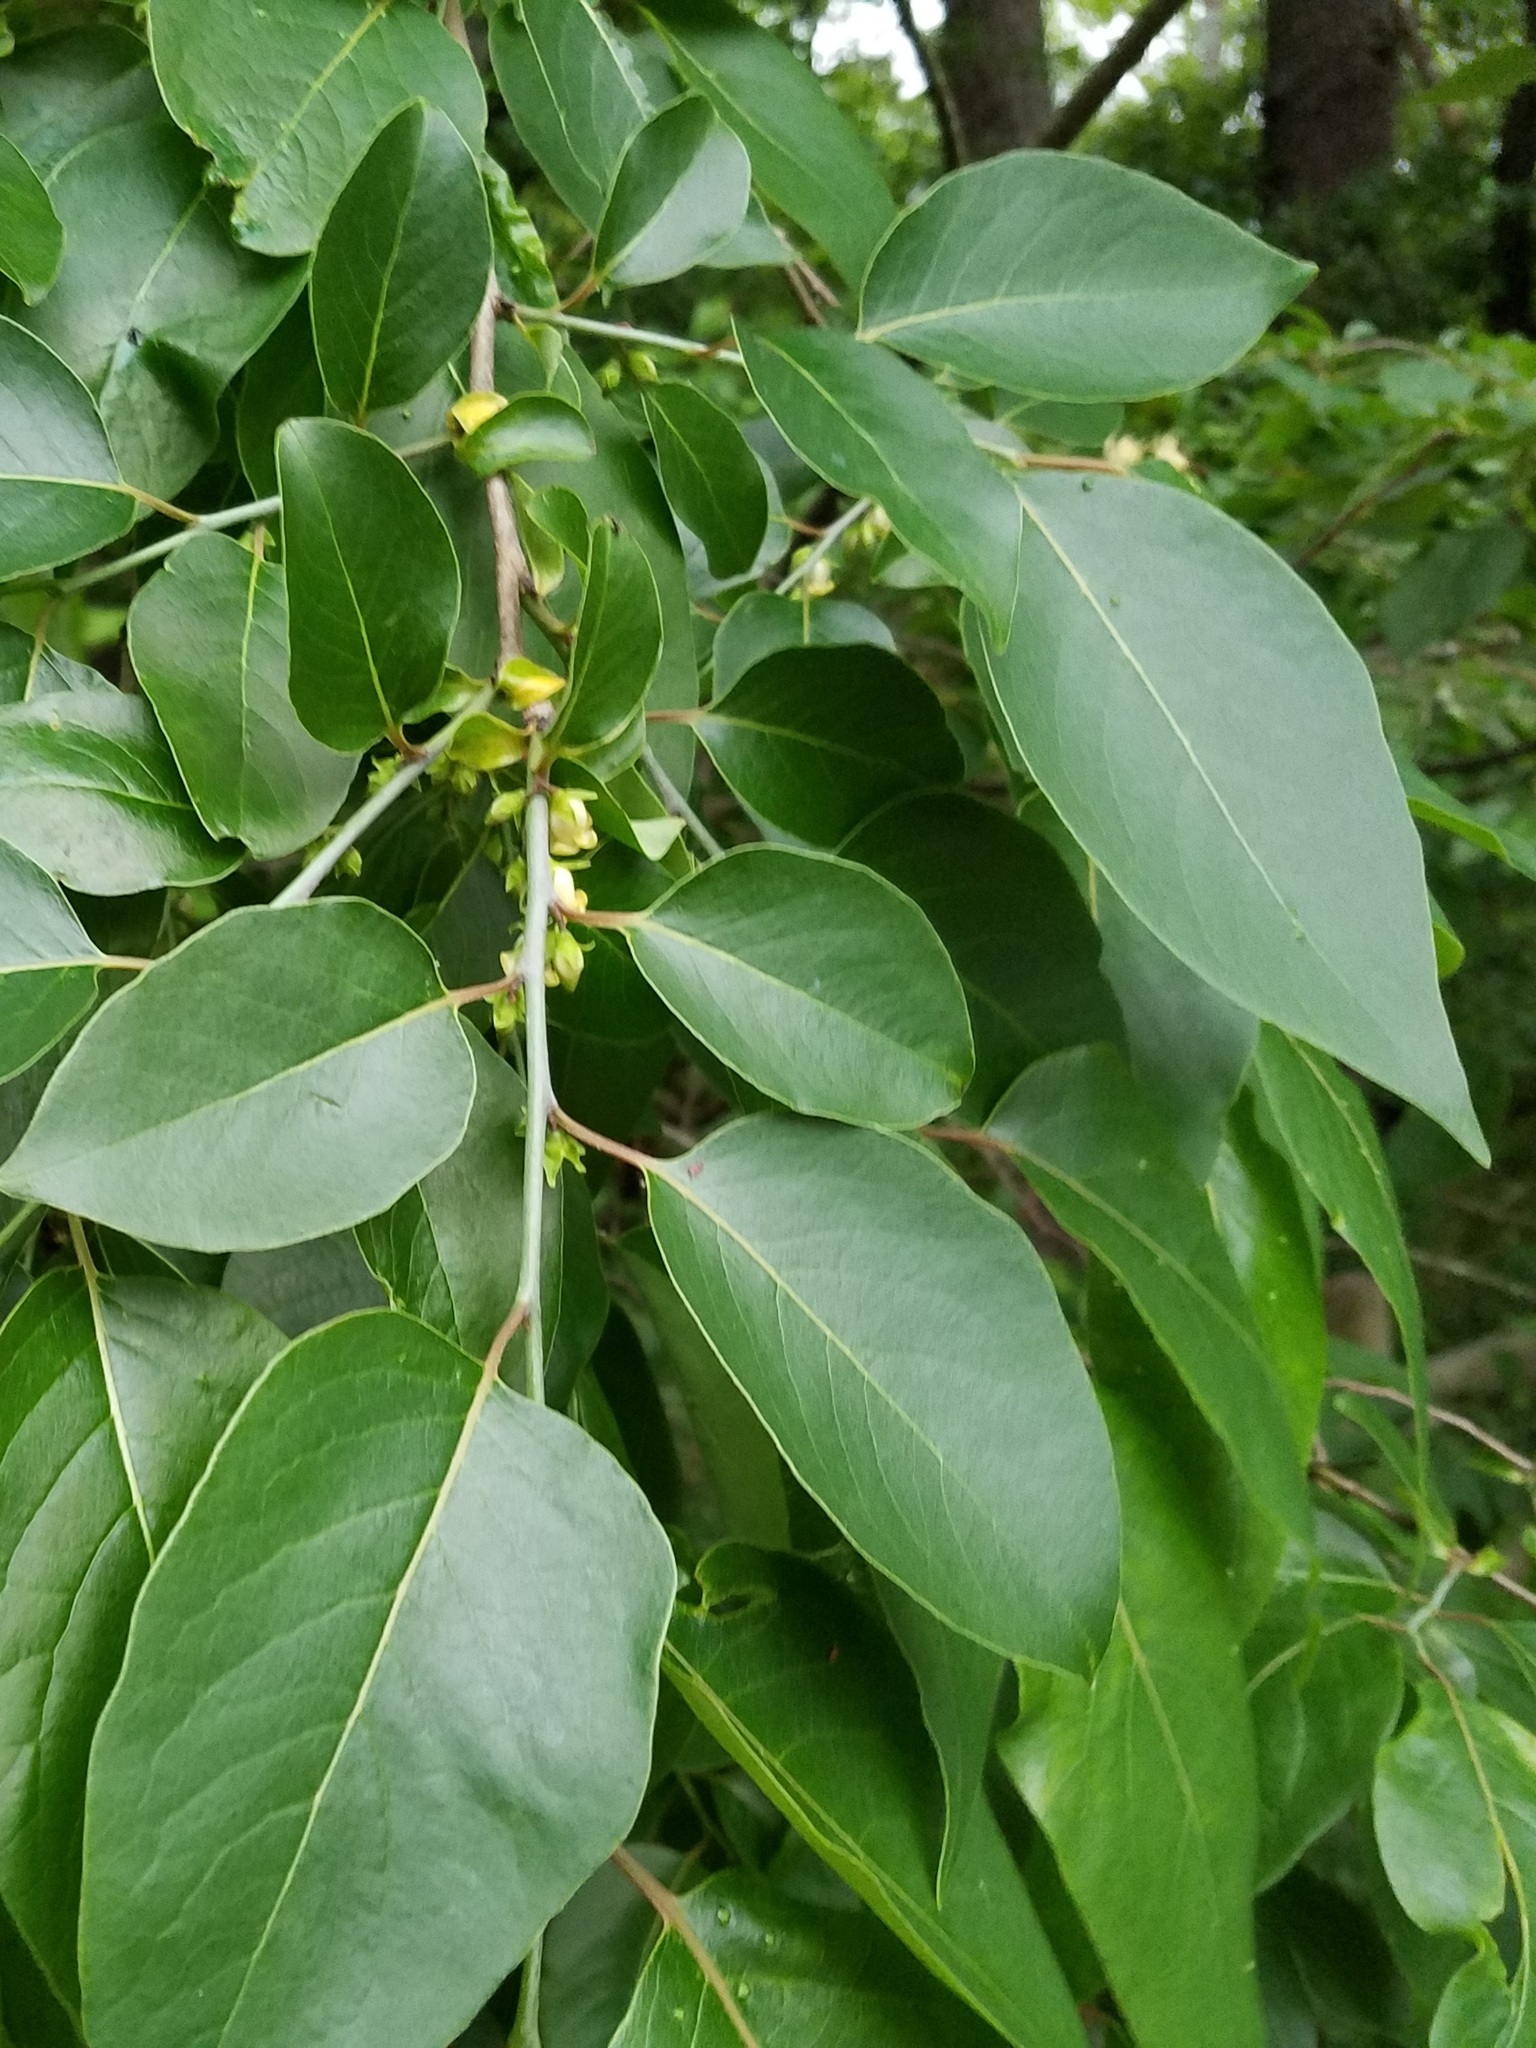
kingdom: Plantae
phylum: Tracheophyta
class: Magnoliopsida
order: Ericales
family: Ebenaceae
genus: Diospyros
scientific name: Diospyros virginiana
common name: Persimmon
